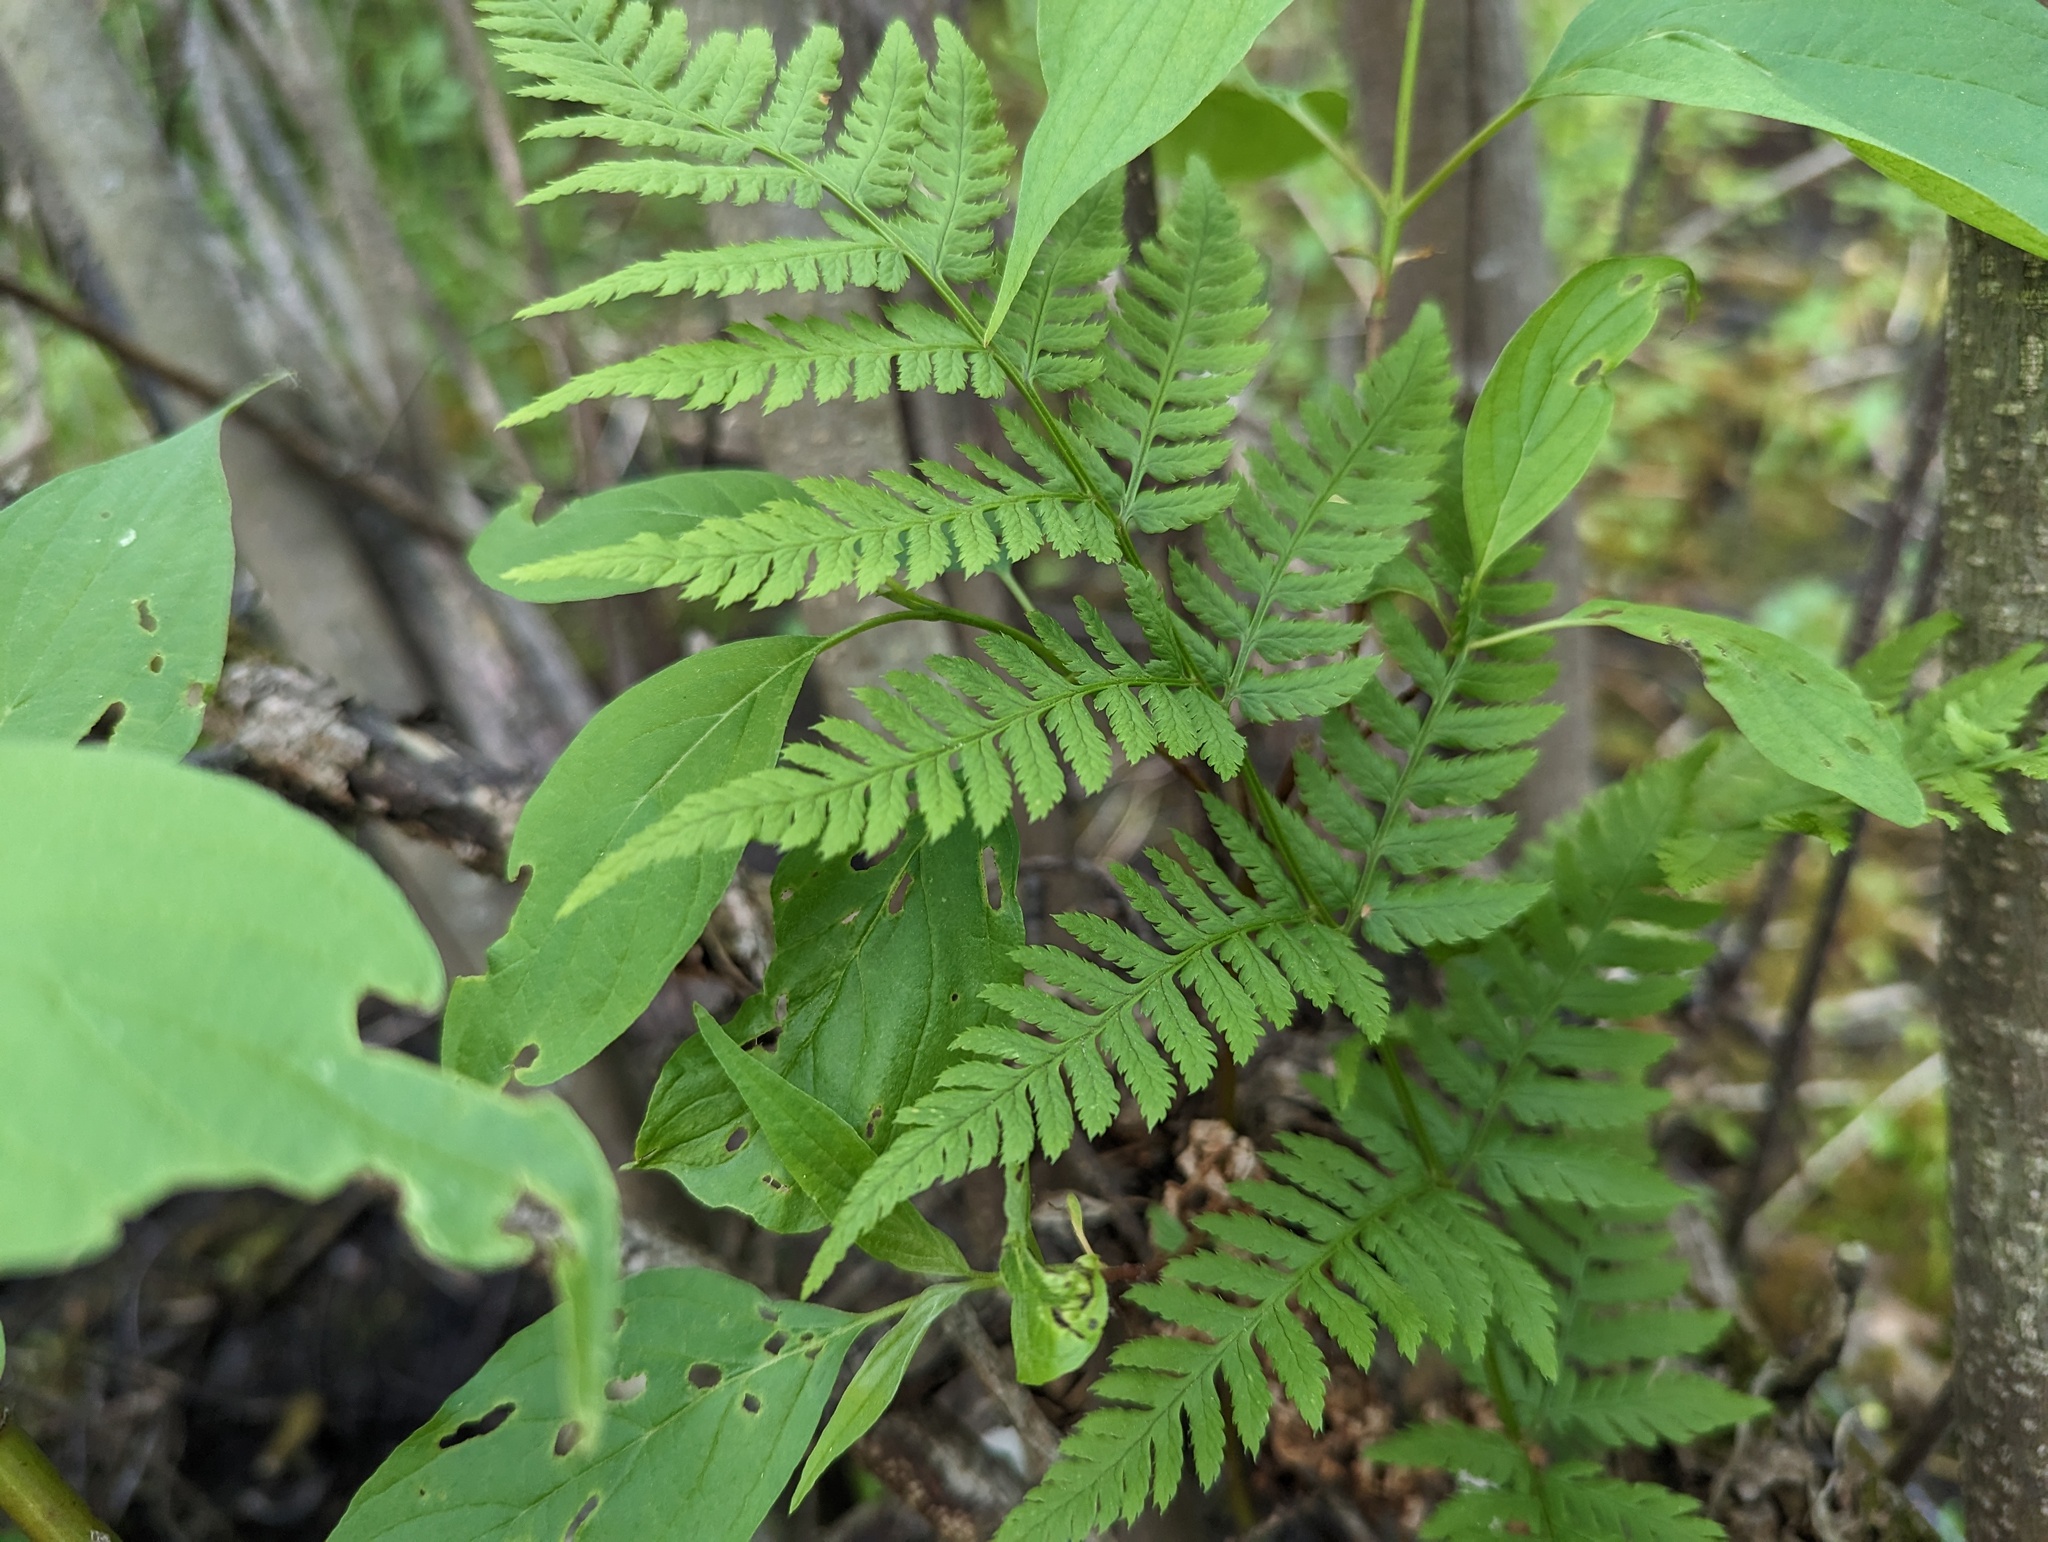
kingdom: Plantae
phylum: Tracheophyta
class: Polypodiopsida
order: Polypodiales
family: Dryopteridaceae
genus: Dryopteris
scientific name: Dryopteris carthusiana
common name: Narrow buckler-fern
